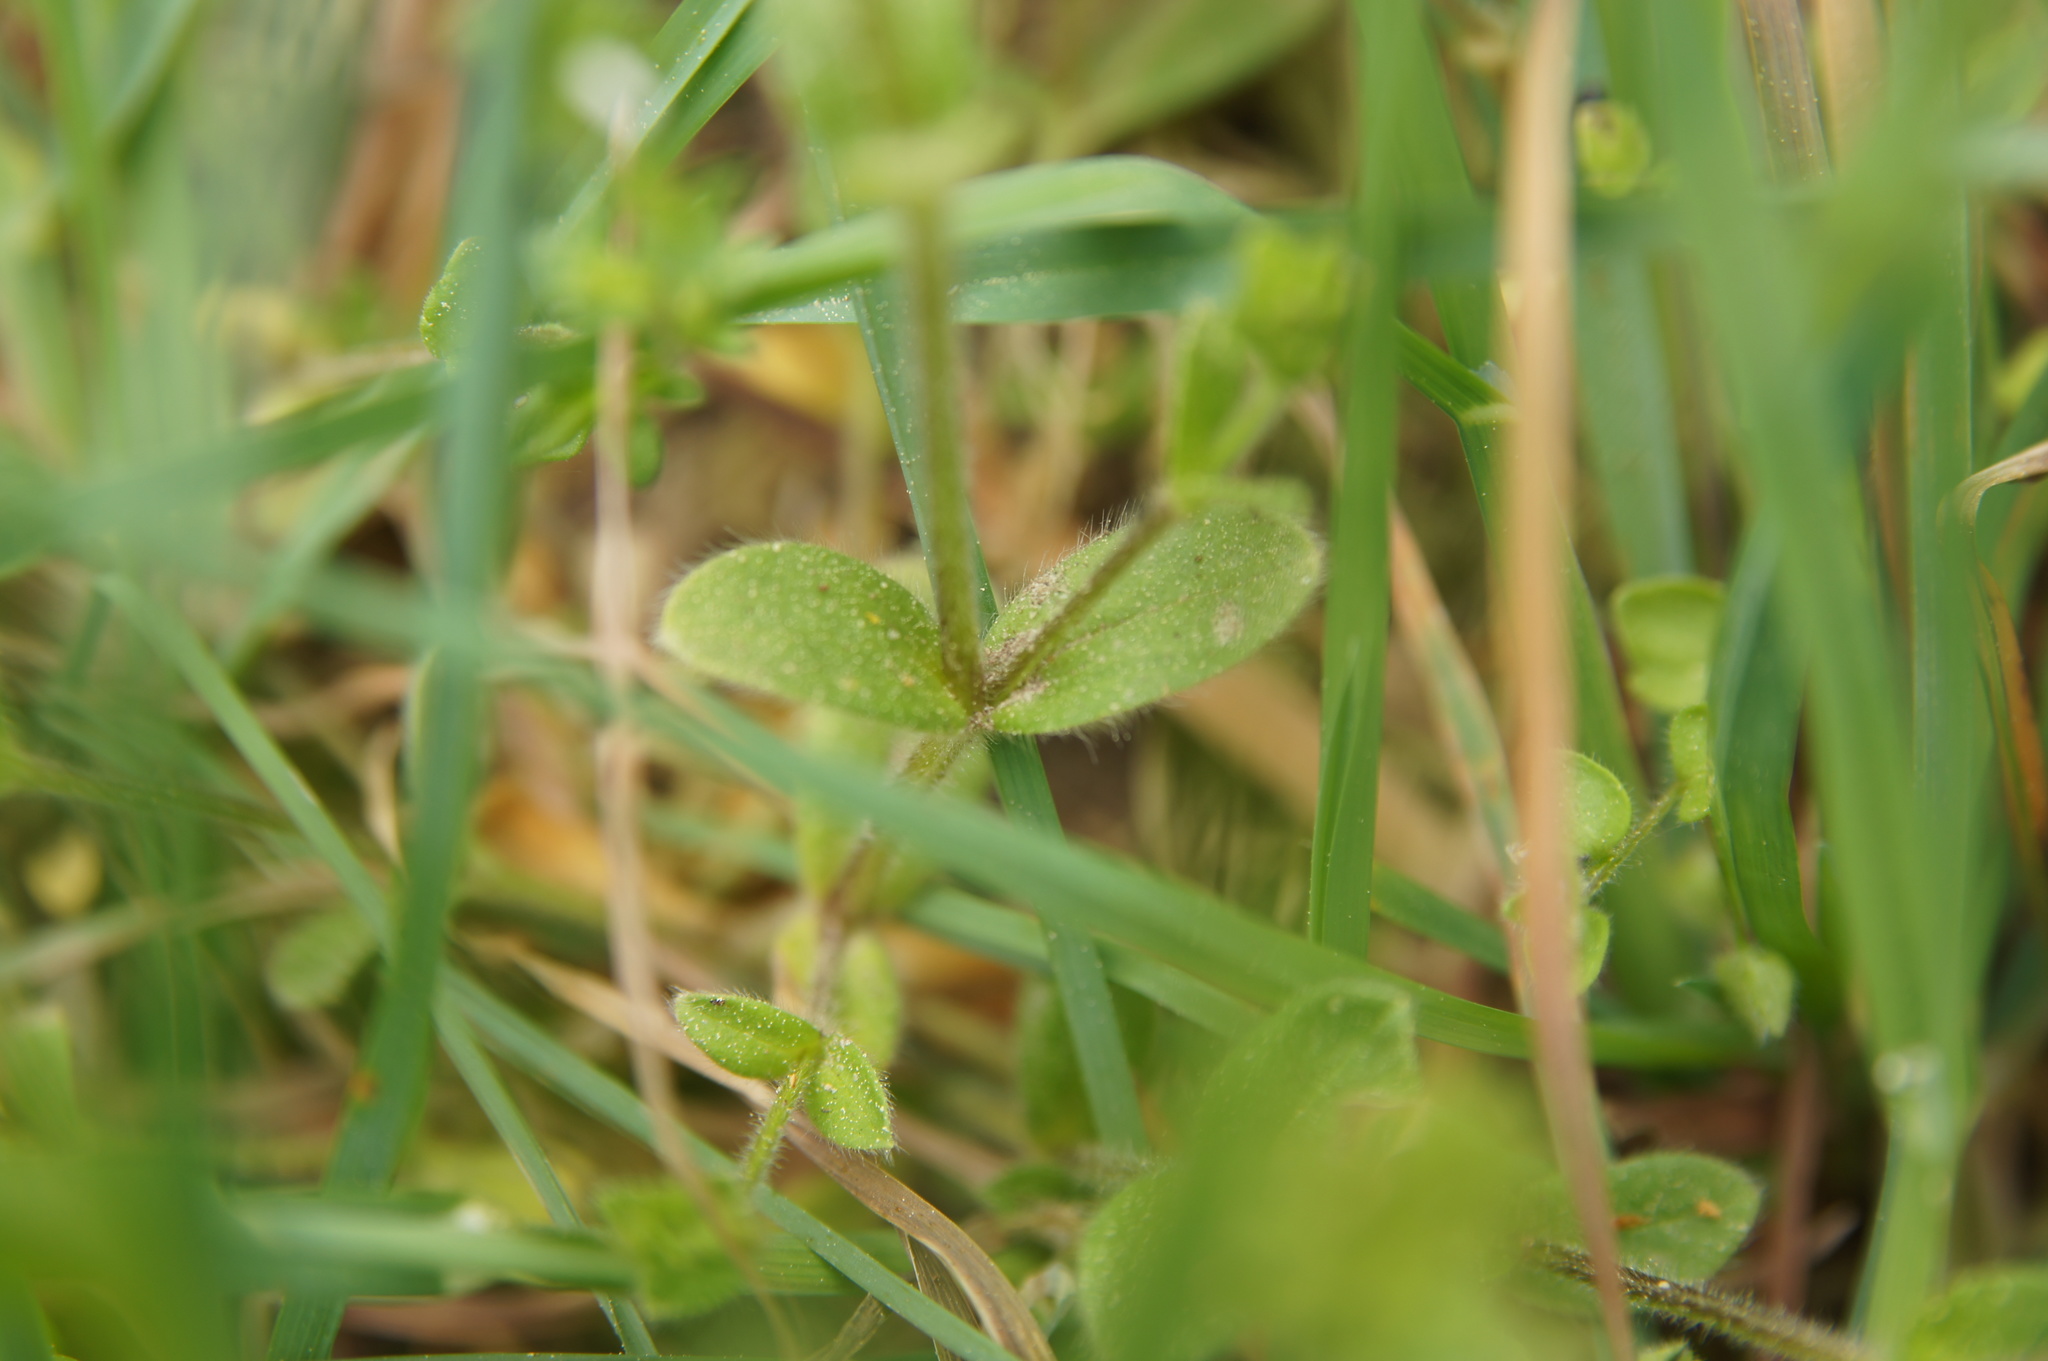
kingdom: Plantae
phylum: Tracheophyta
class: Magnoliopsida
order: Caryophyllales
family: Caryophyllaceae
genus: Stellaria
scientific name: Stellaria media
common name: Common chickweed
